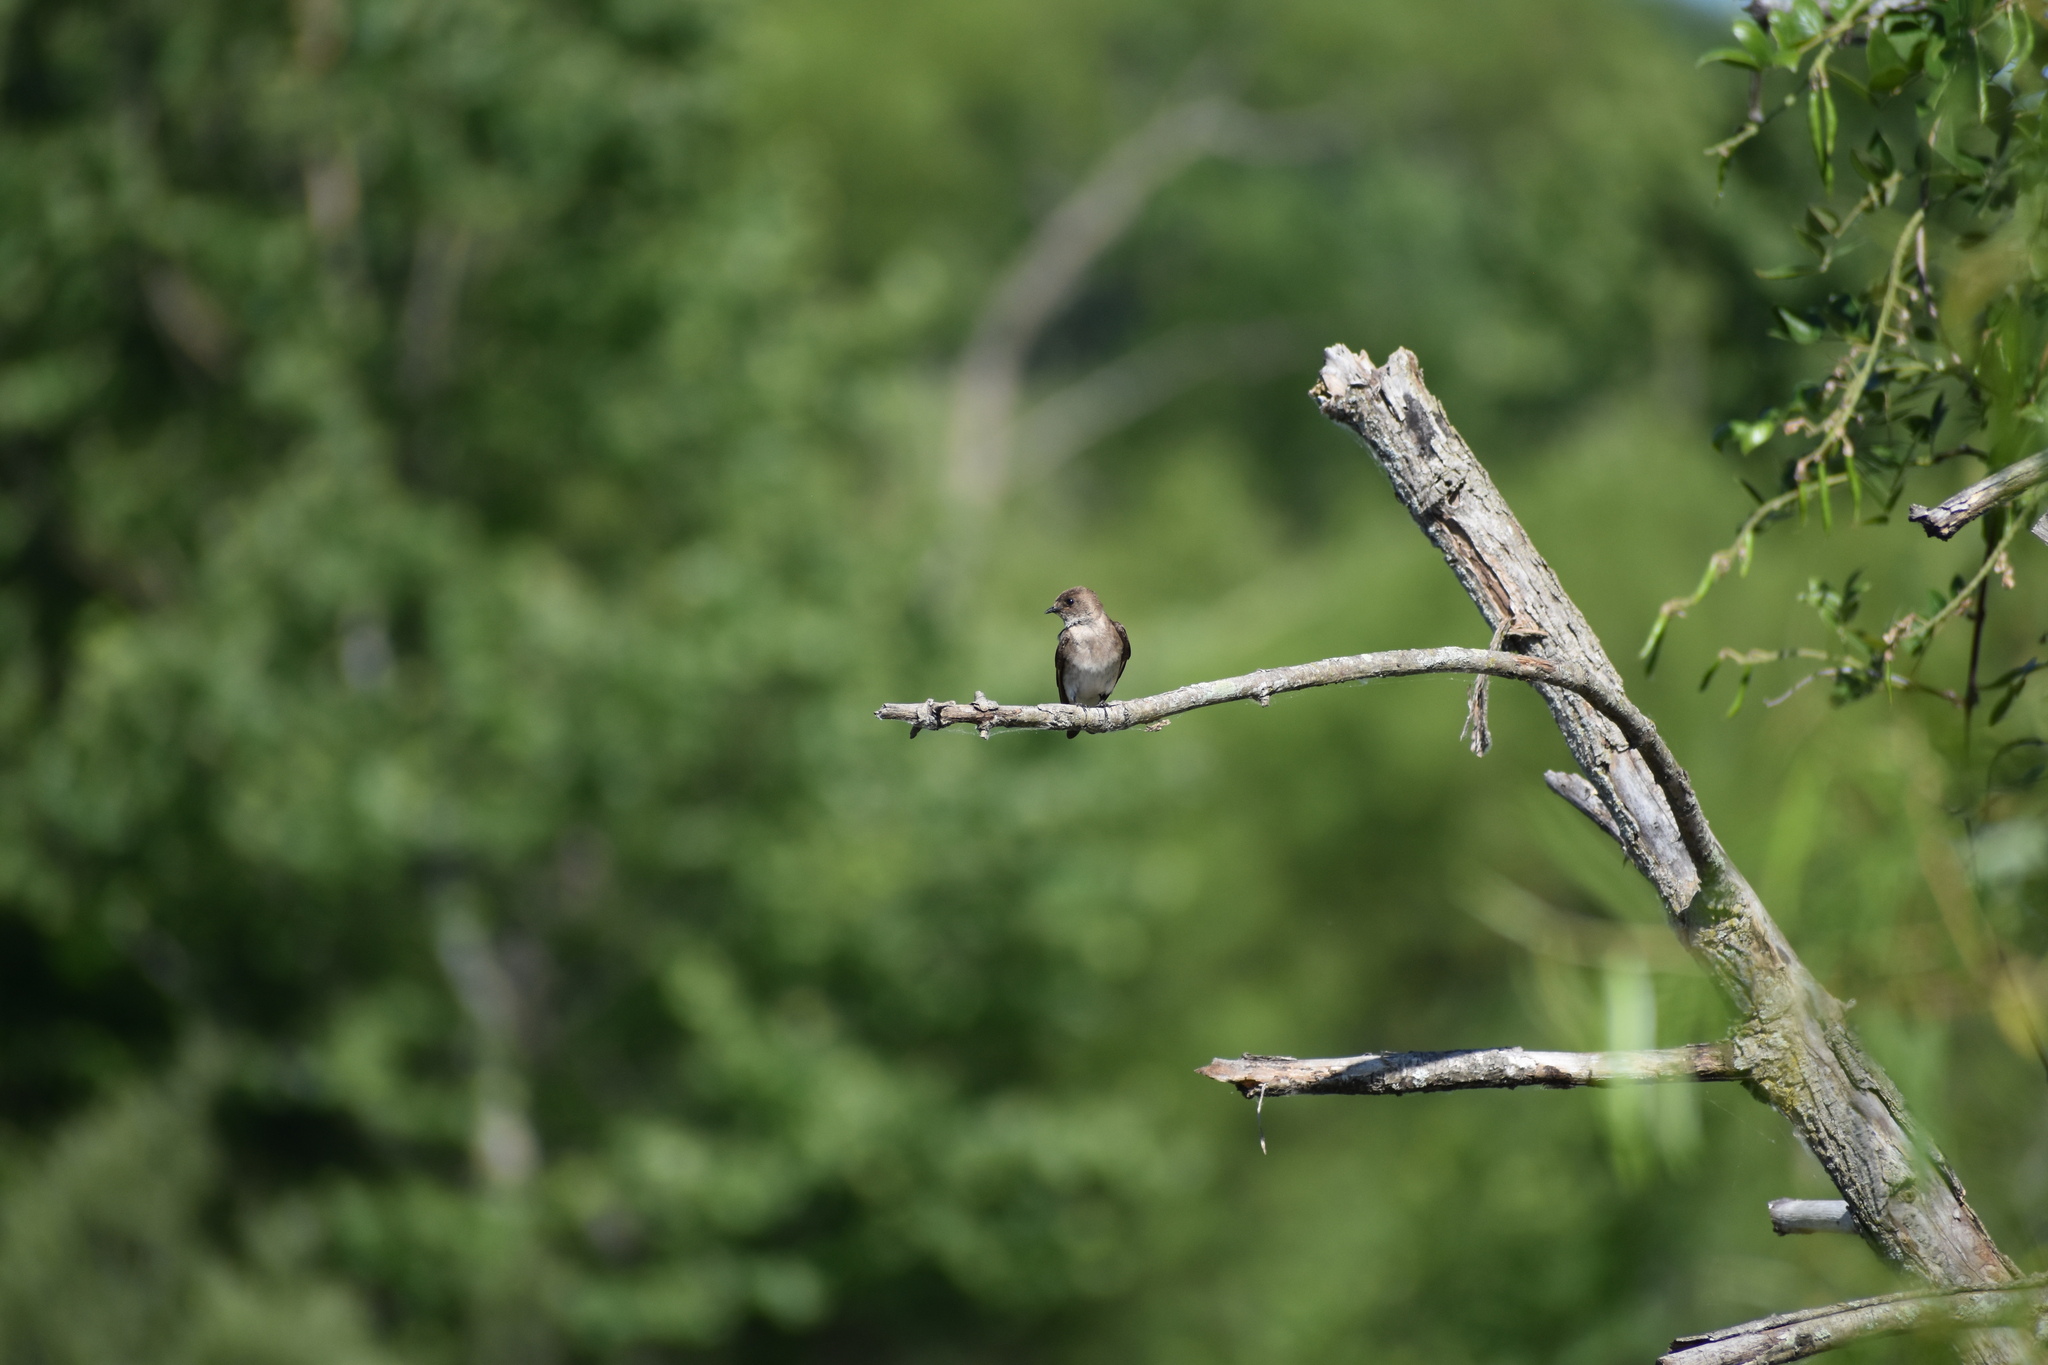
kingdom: Animalia
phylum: Chordata
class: Aves
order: Passeriformes
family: Hirundinidae
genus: Stelgidopteryx
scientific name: Stelgidopteryx serripennis
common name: Northern rough-winged swallow
